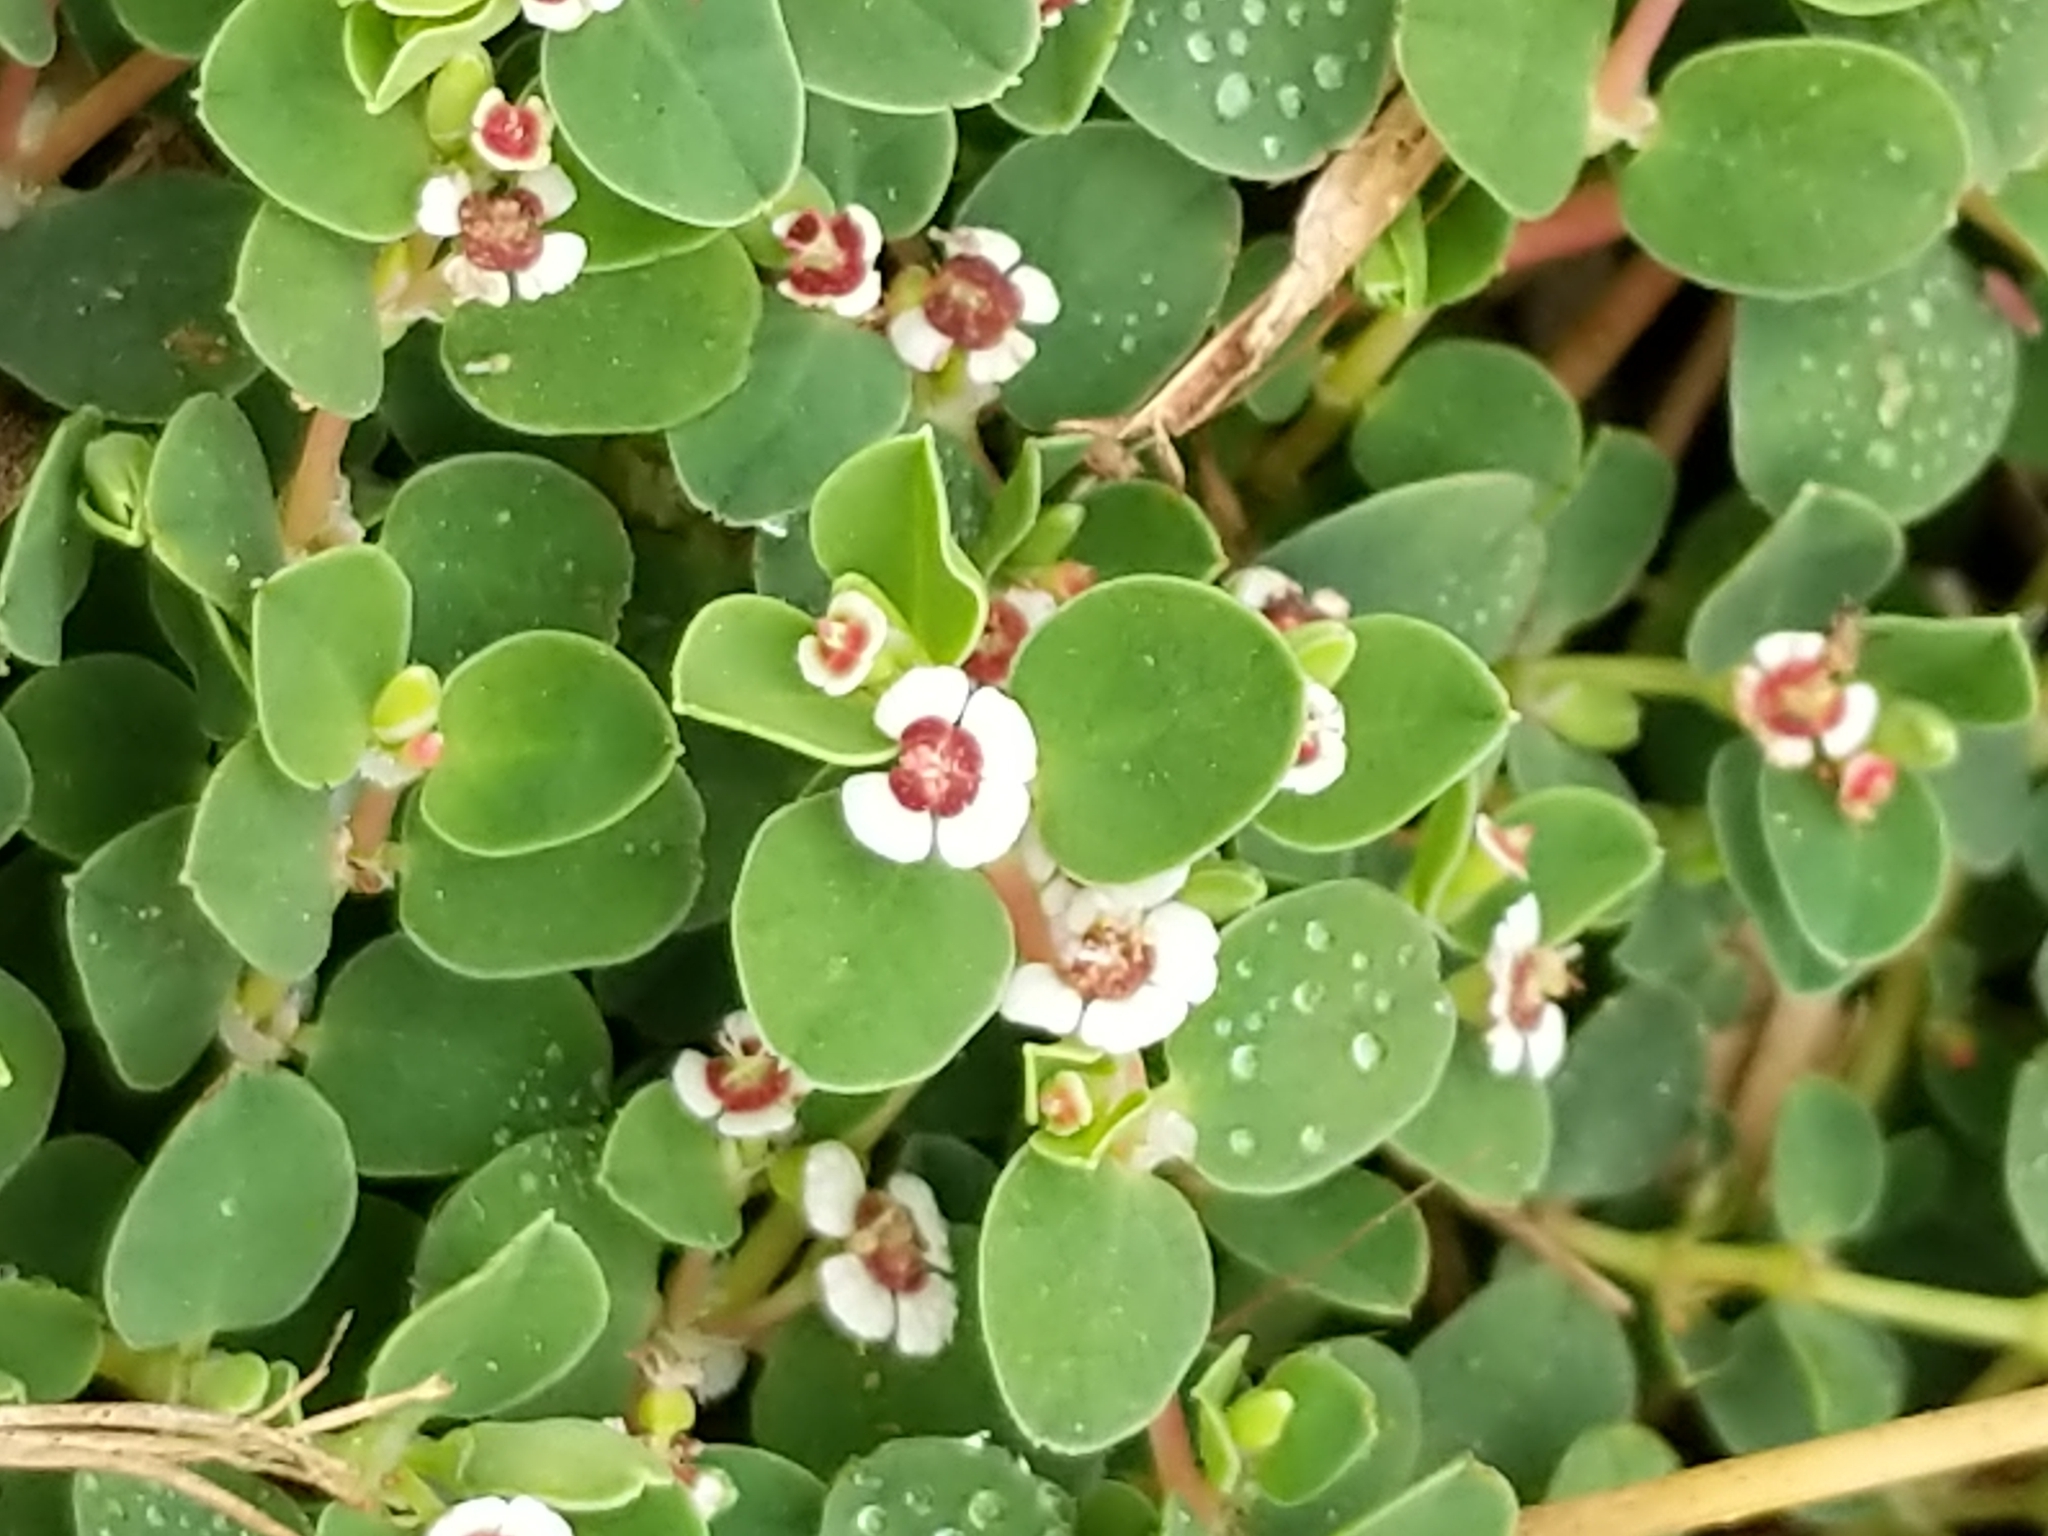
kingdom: Plantae
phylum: Tracheophyta
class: Magnoliopsida
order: Malpighiales
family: Euphorbiaceae
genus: Euphorbia
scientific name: Euphorbia albomarginata
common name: Whitemargin sandmat
